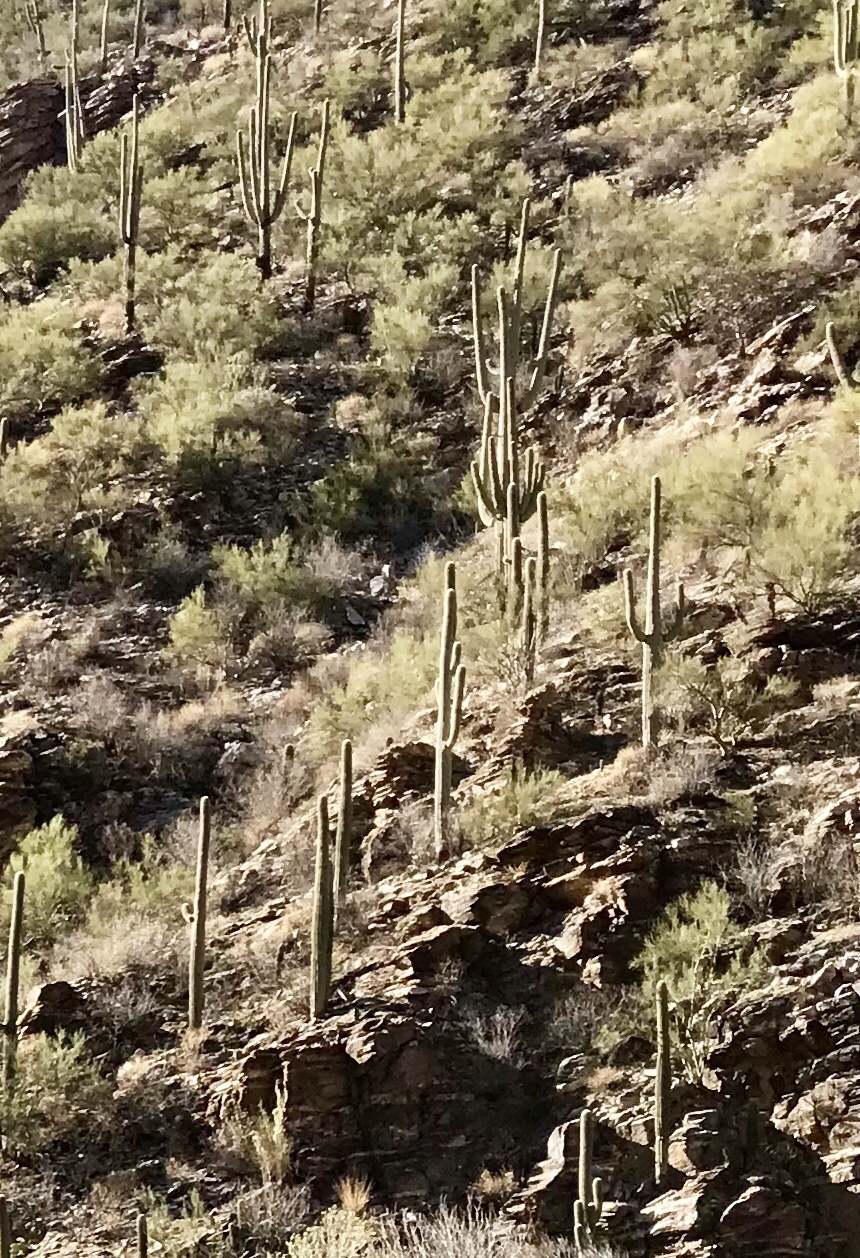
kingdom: Plantae
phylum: Tracheophyta
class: Magnoliopsida
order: Caryophyllales
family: Cactaceae
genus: Carnegiea
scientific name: Carnegiea gigantea
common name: Saguaro
